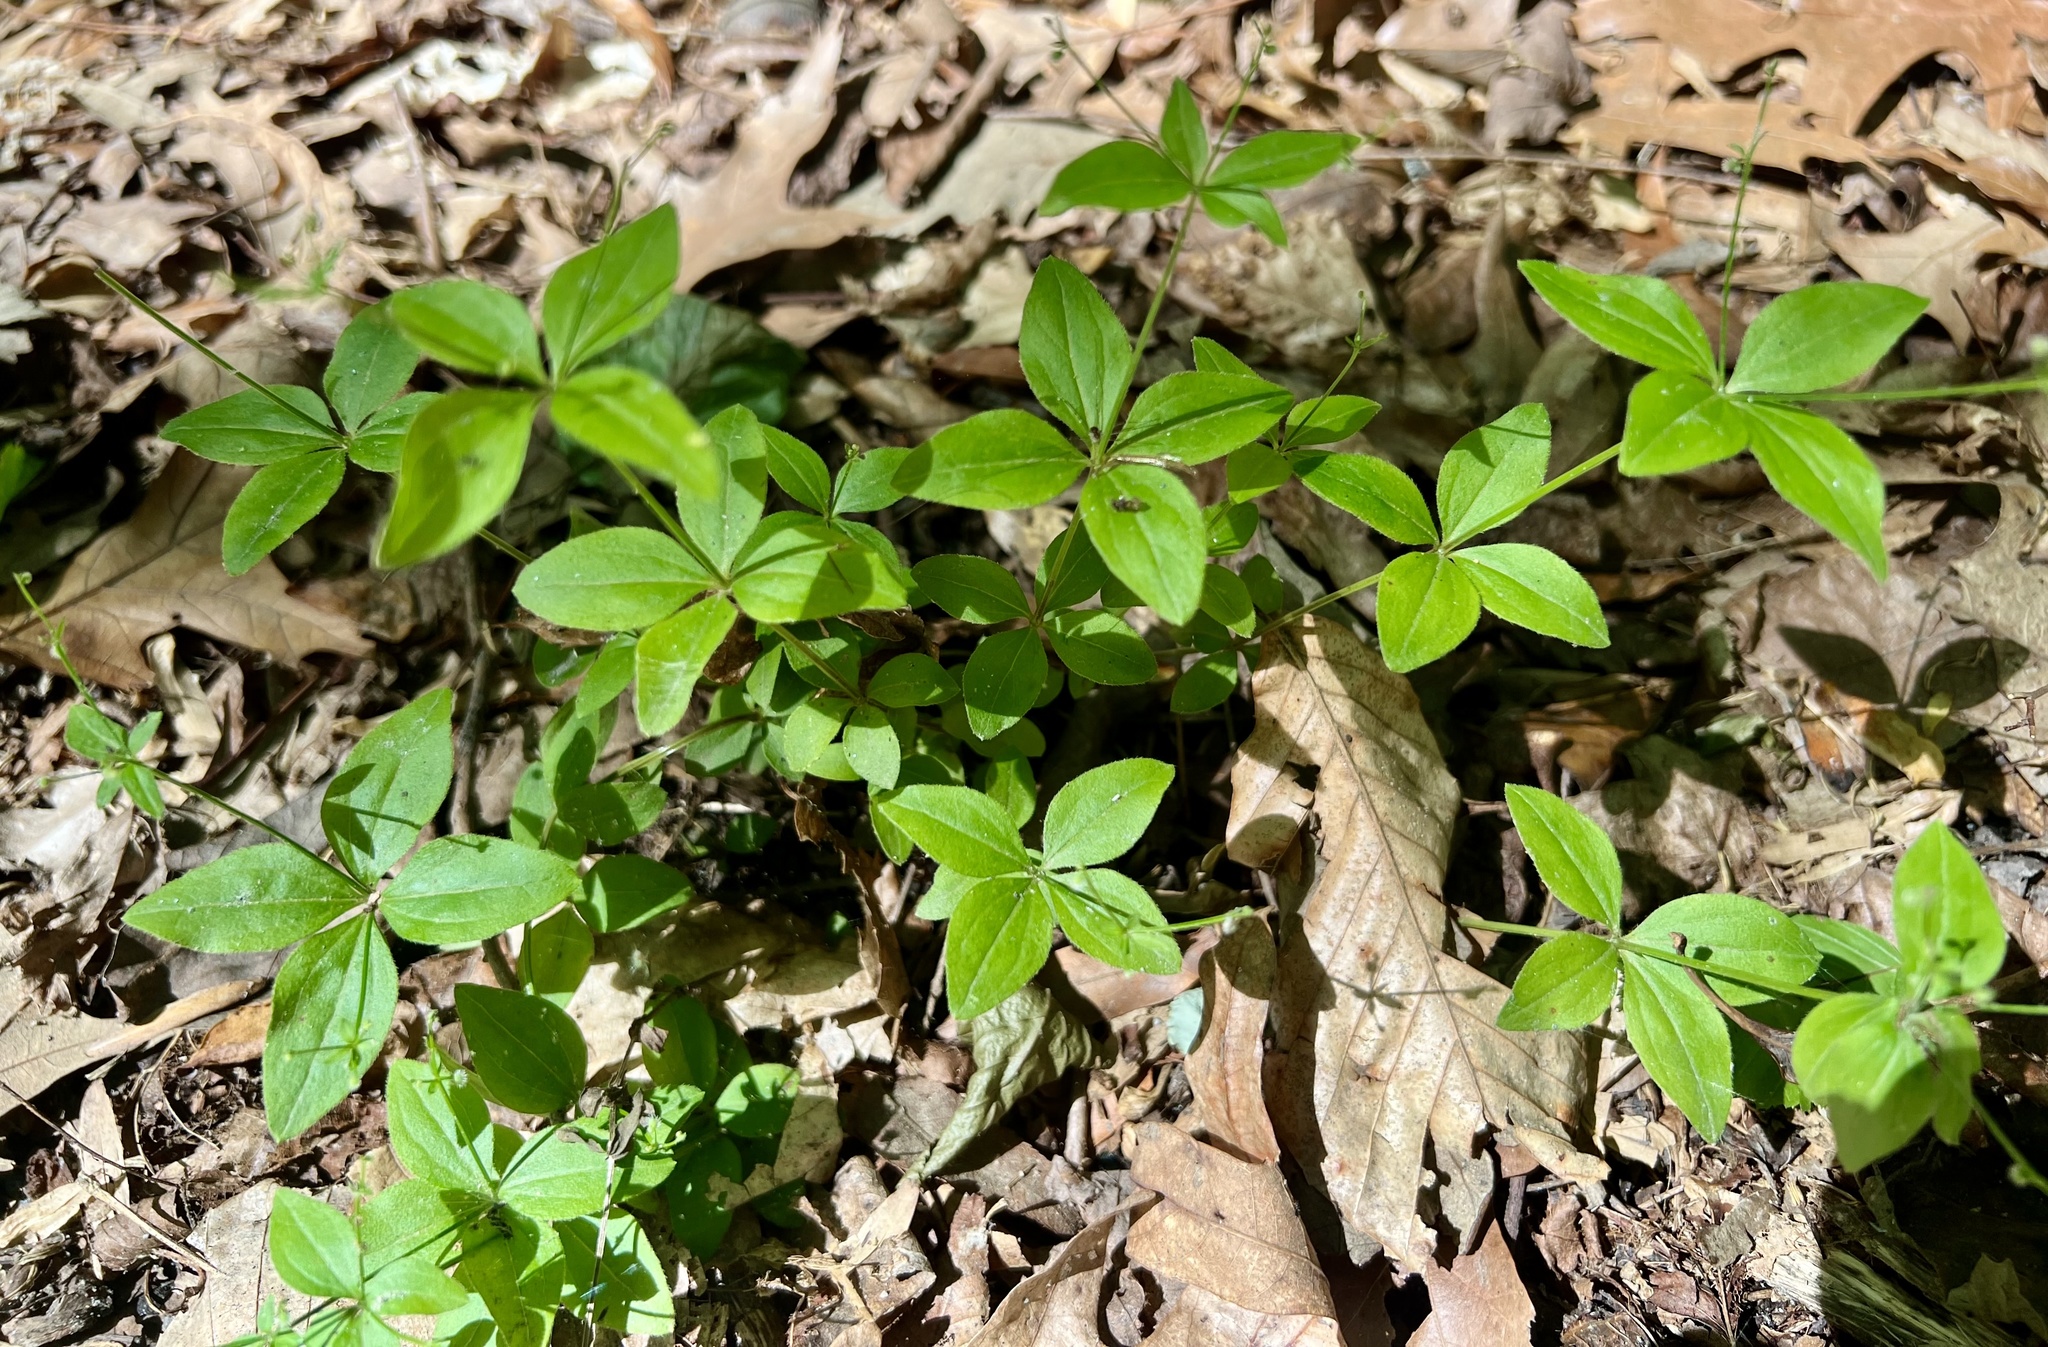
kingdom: Plantae
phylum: Tracheophyta
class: Magnoliopsida
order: Gentianales
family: Rubiaceae
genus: Galium
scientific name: Galium circaezans
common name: Forest bedstraw
